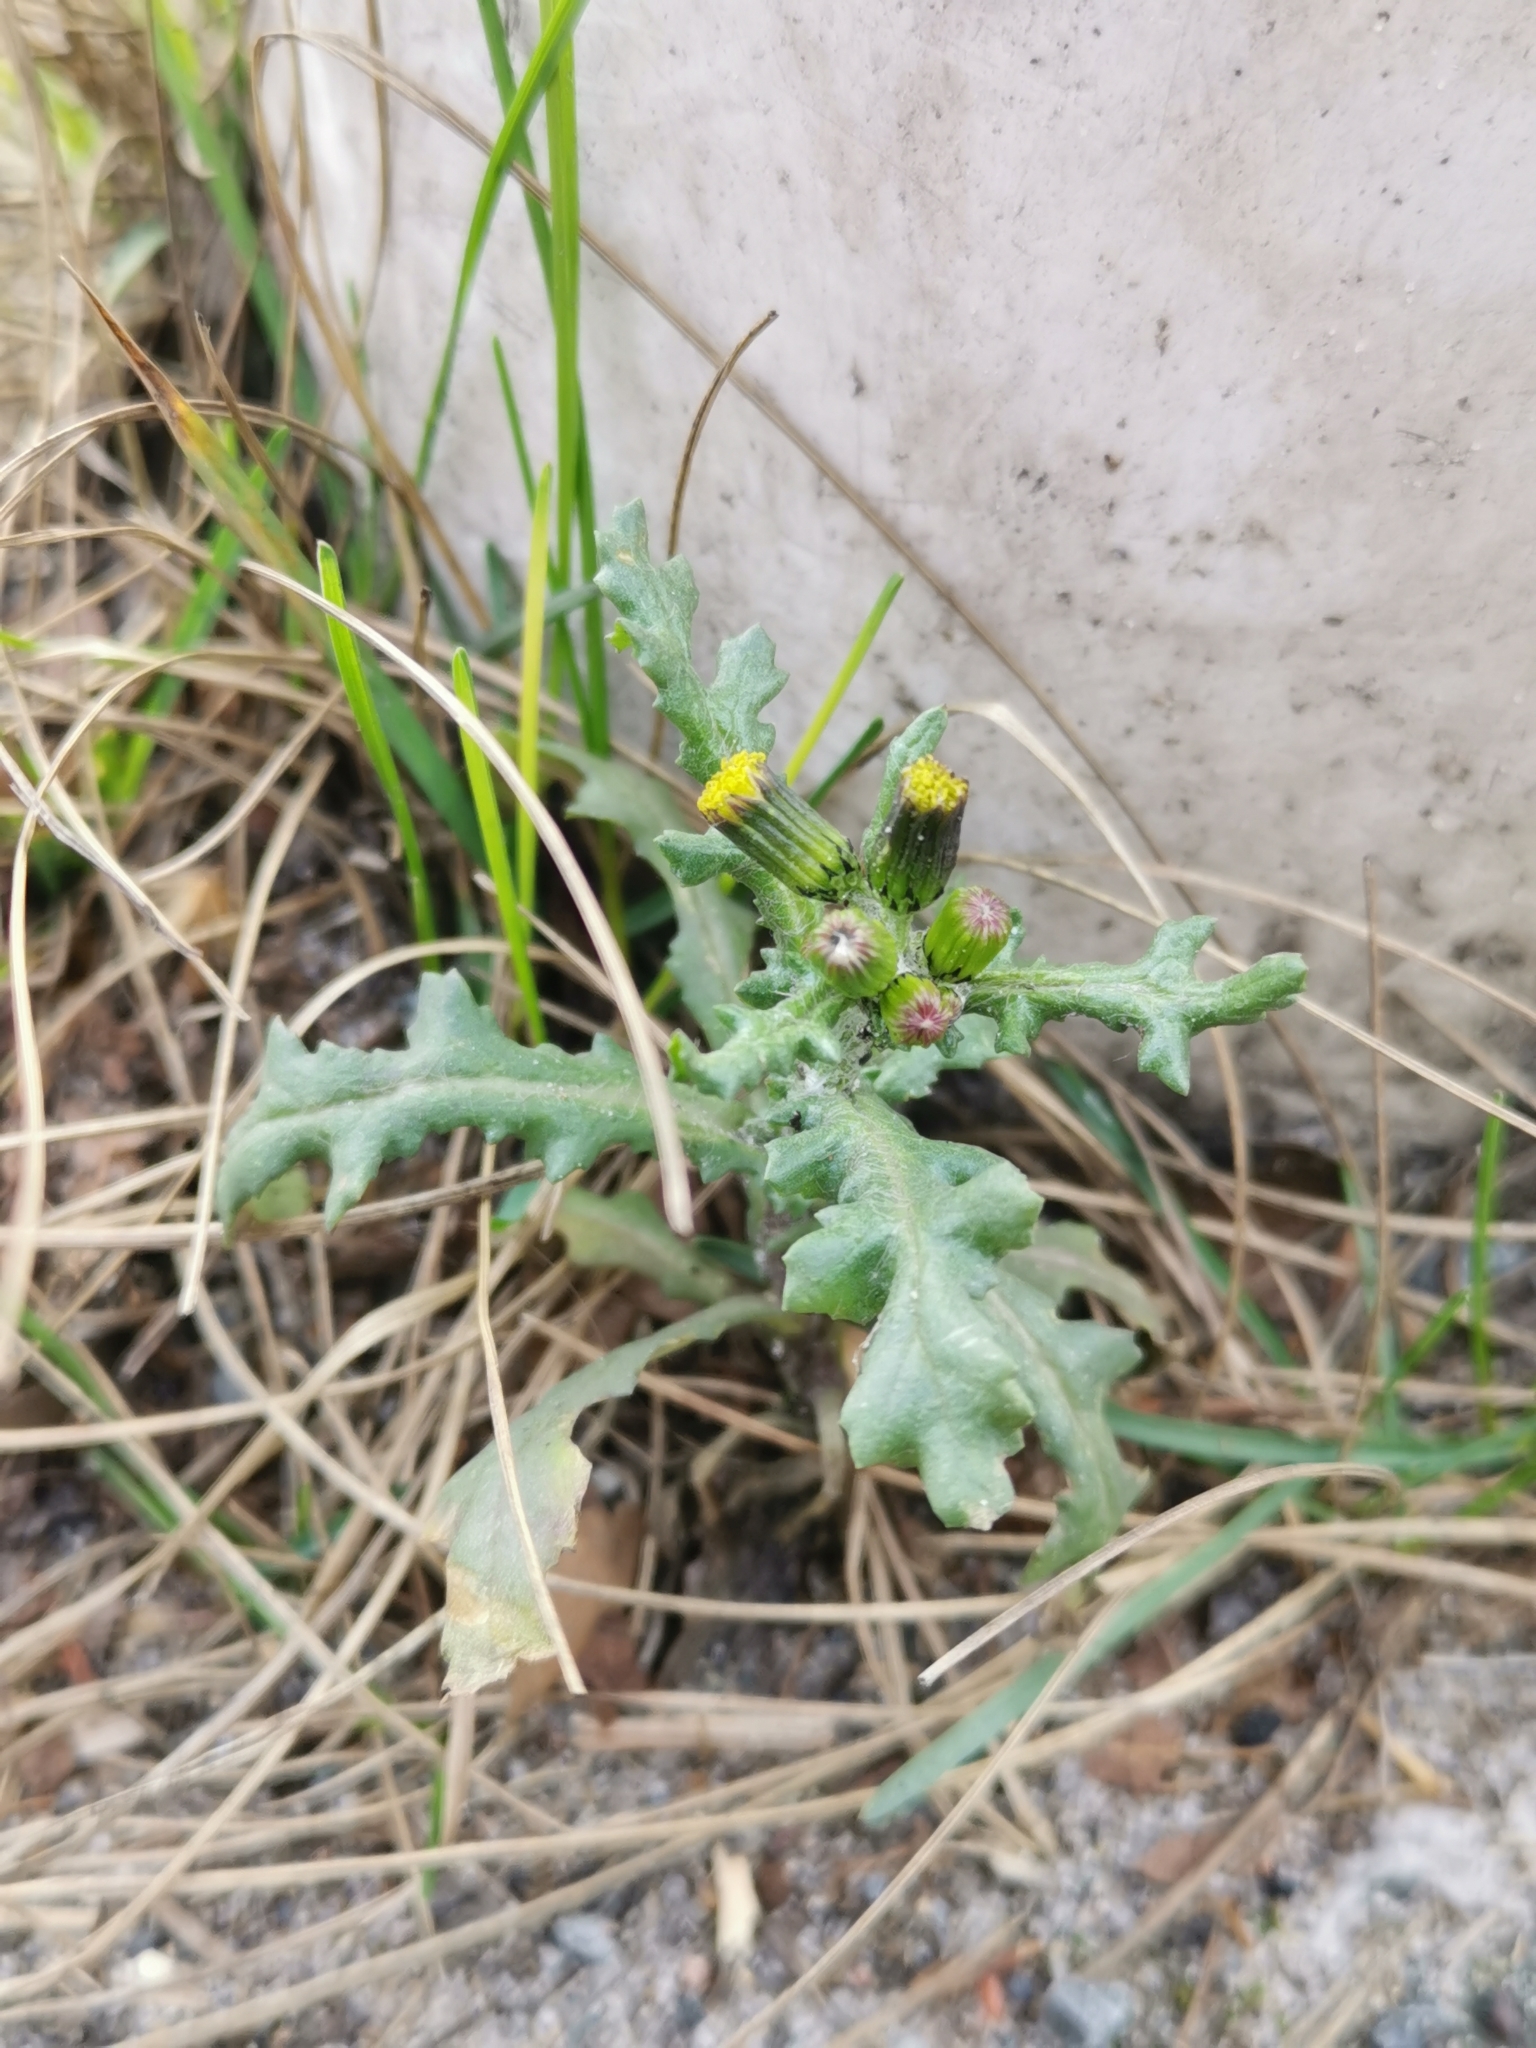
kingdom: Plantae
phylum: Tracheophyta
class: Magnoliopsida
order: Asterales
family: Asteraceae
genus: Senecio
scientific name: Senecio vulgaris
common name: Old-man-in-the-spring
